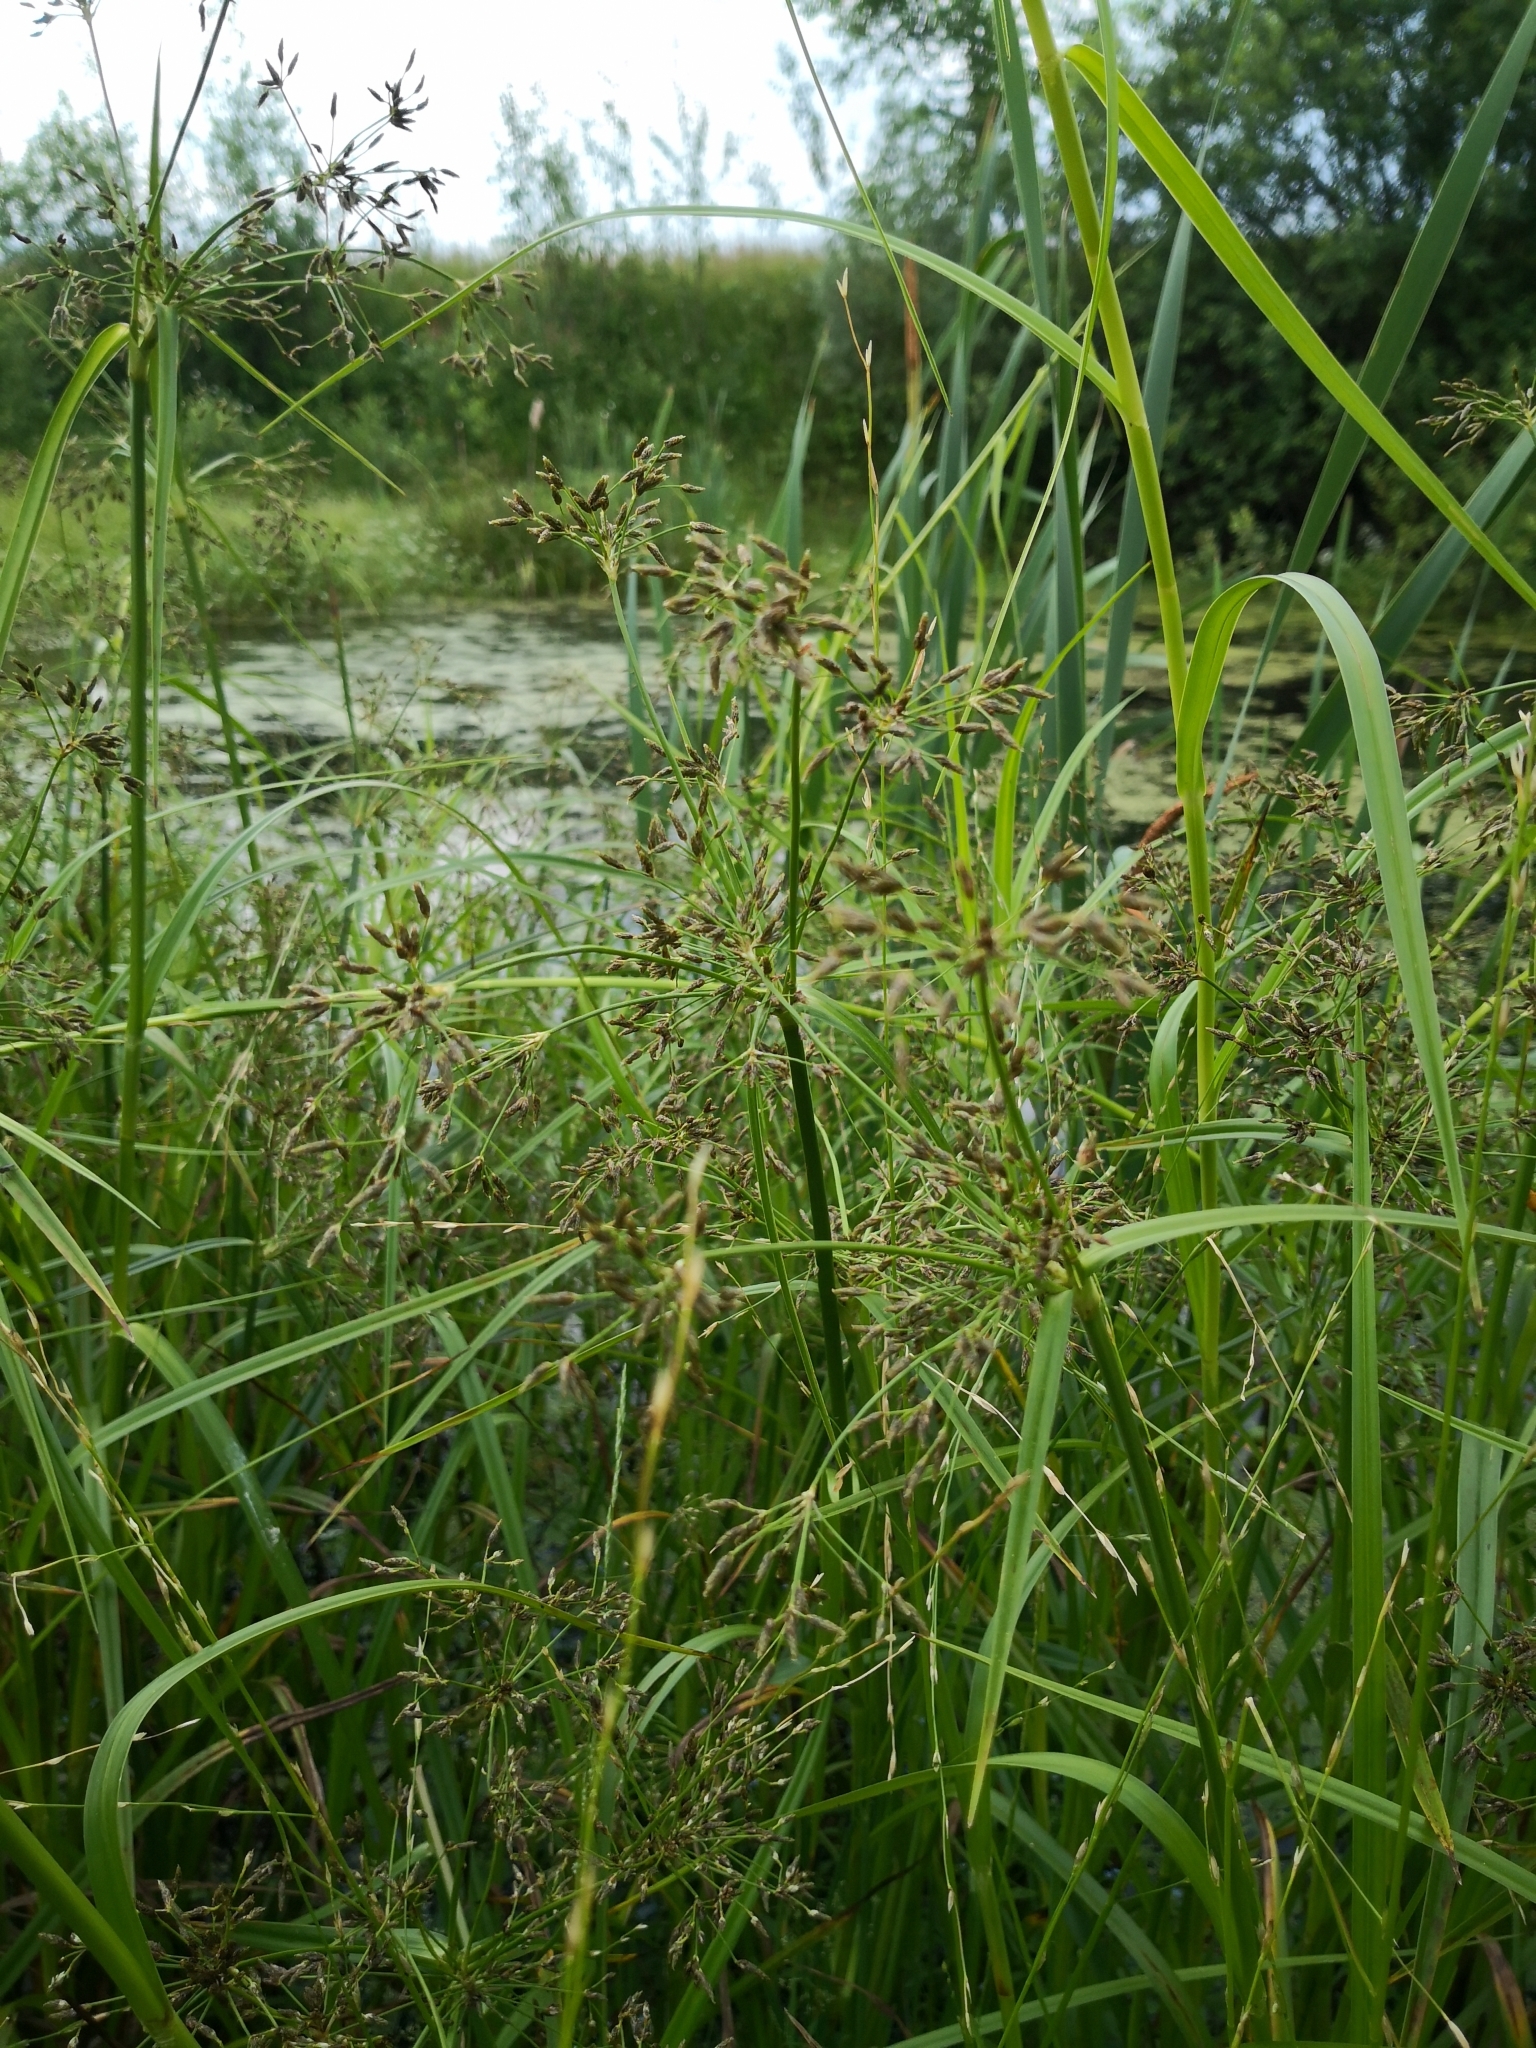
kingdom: Plantae
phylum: Tracheophyta
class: Liliopsida
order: Poales
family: Cyperaceae
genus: Scirpus
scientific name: Scirpus radicans
